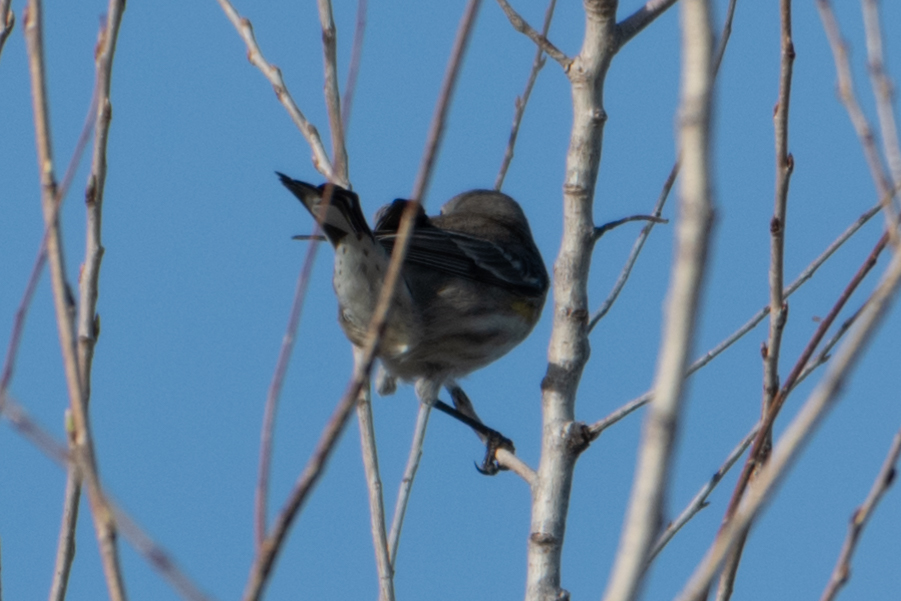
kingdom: Animalia
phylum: Chordata
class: Aves
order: Passeriformes
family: Parulidae
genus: Setophaga
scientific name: Setophaga coronata
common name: Myrtle warbler
